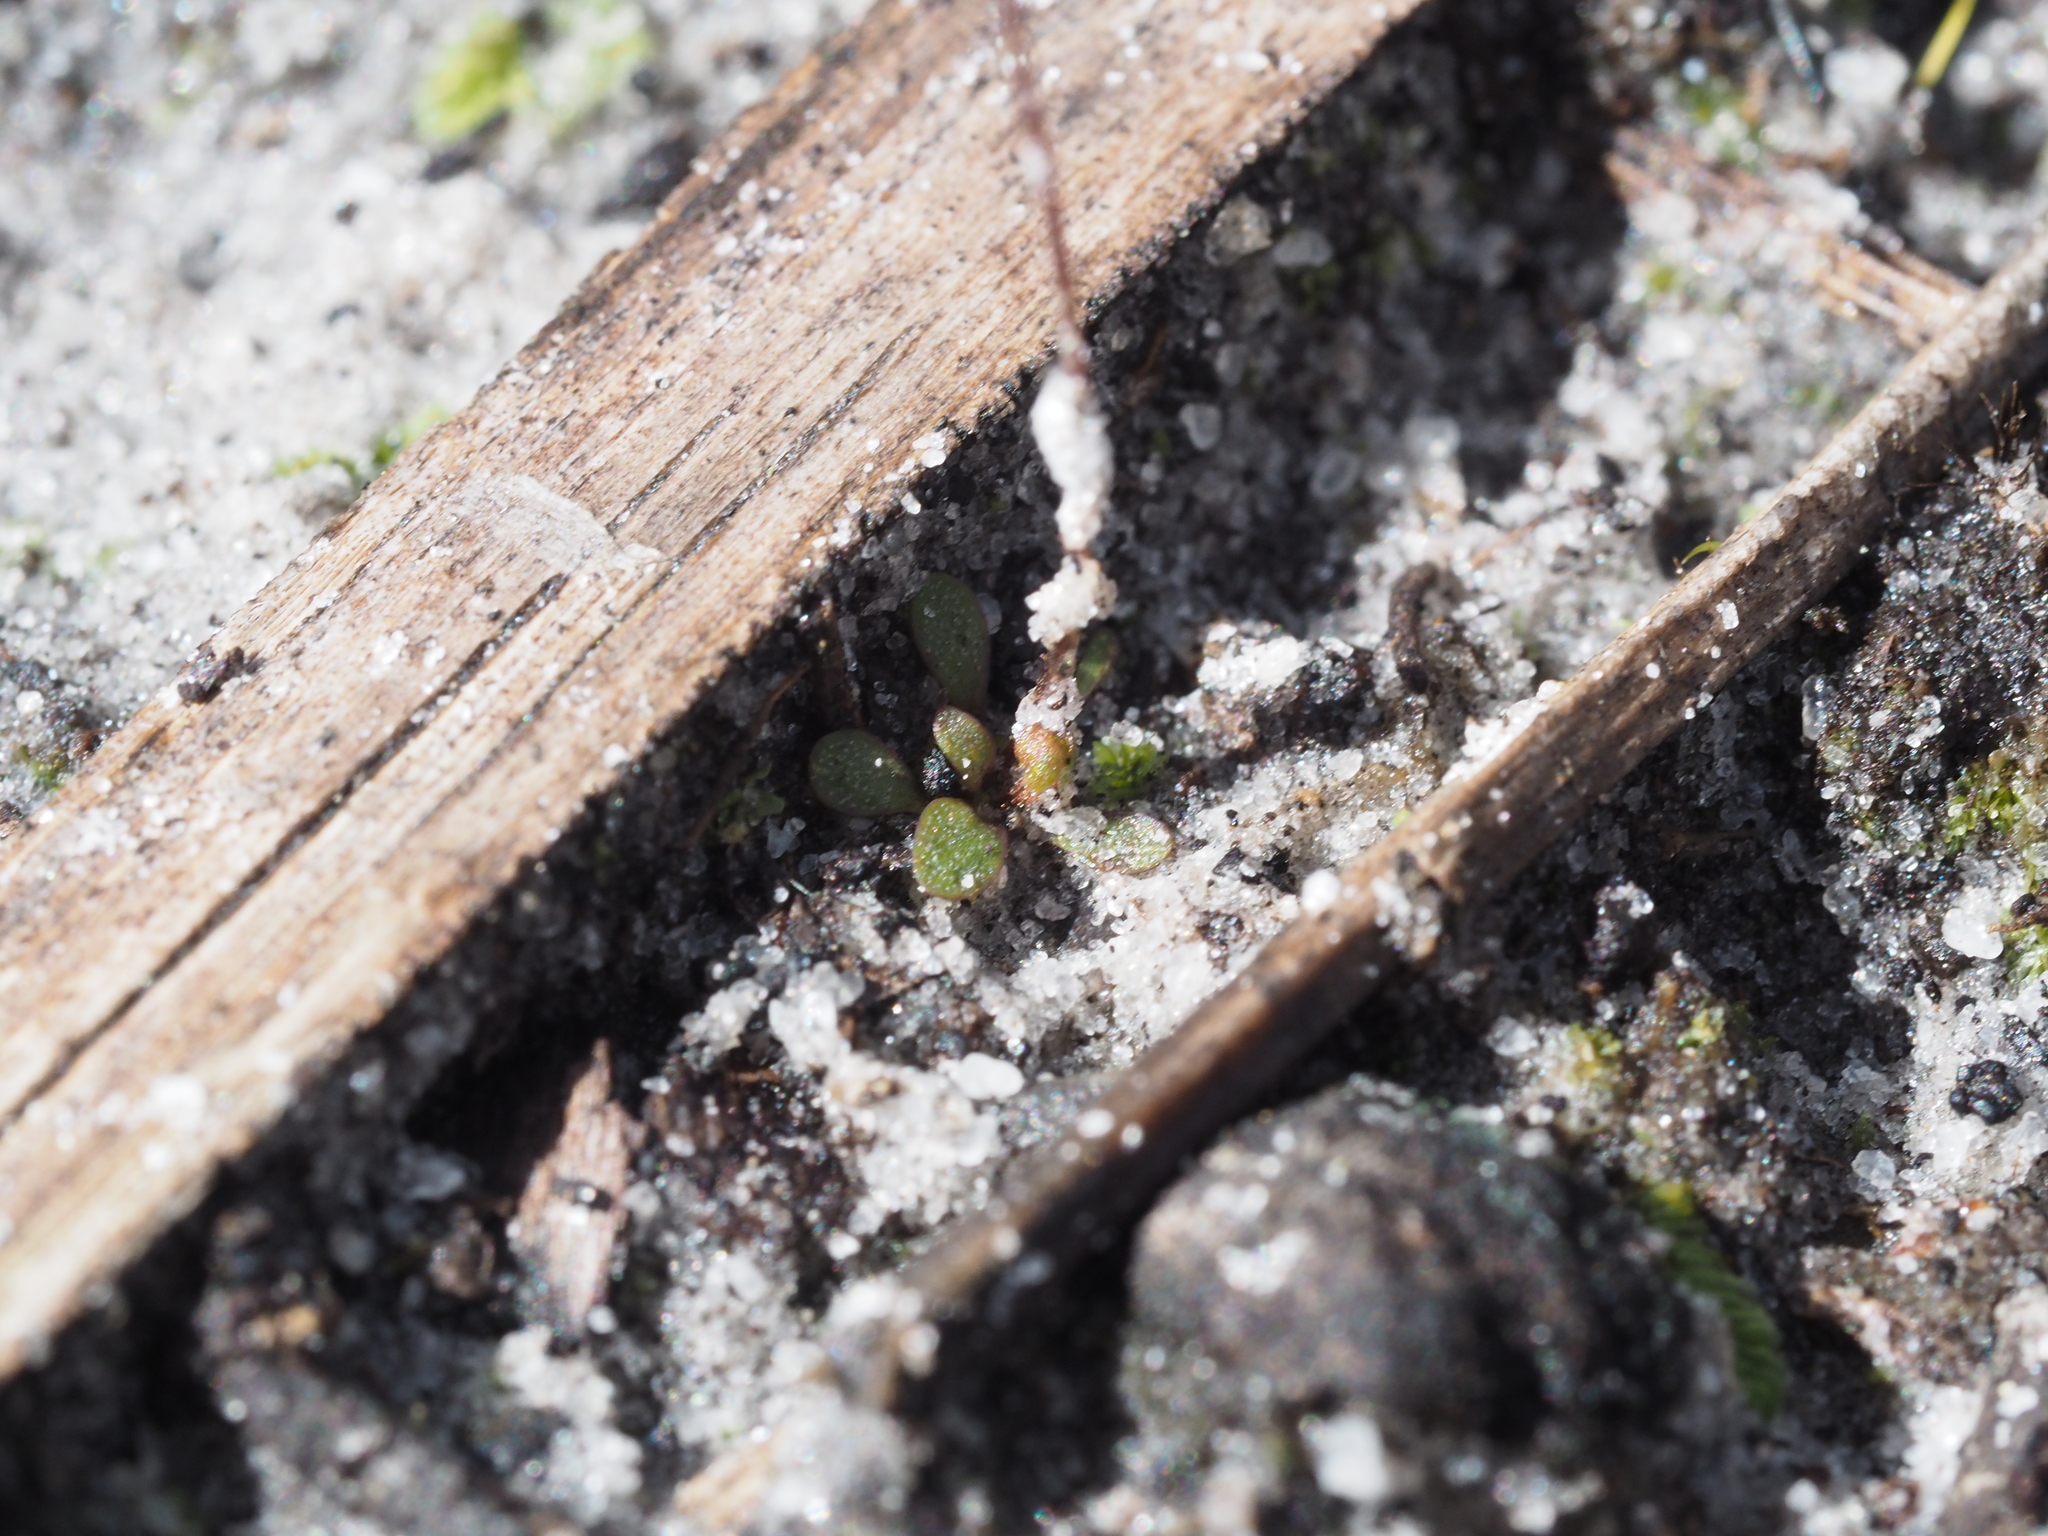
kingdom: Plantae
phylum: Tracheophyta
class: Magnoliopsida
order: Asterales
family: Stylidiaceae
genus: Stylidium
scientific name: Stylidium perpusillum
